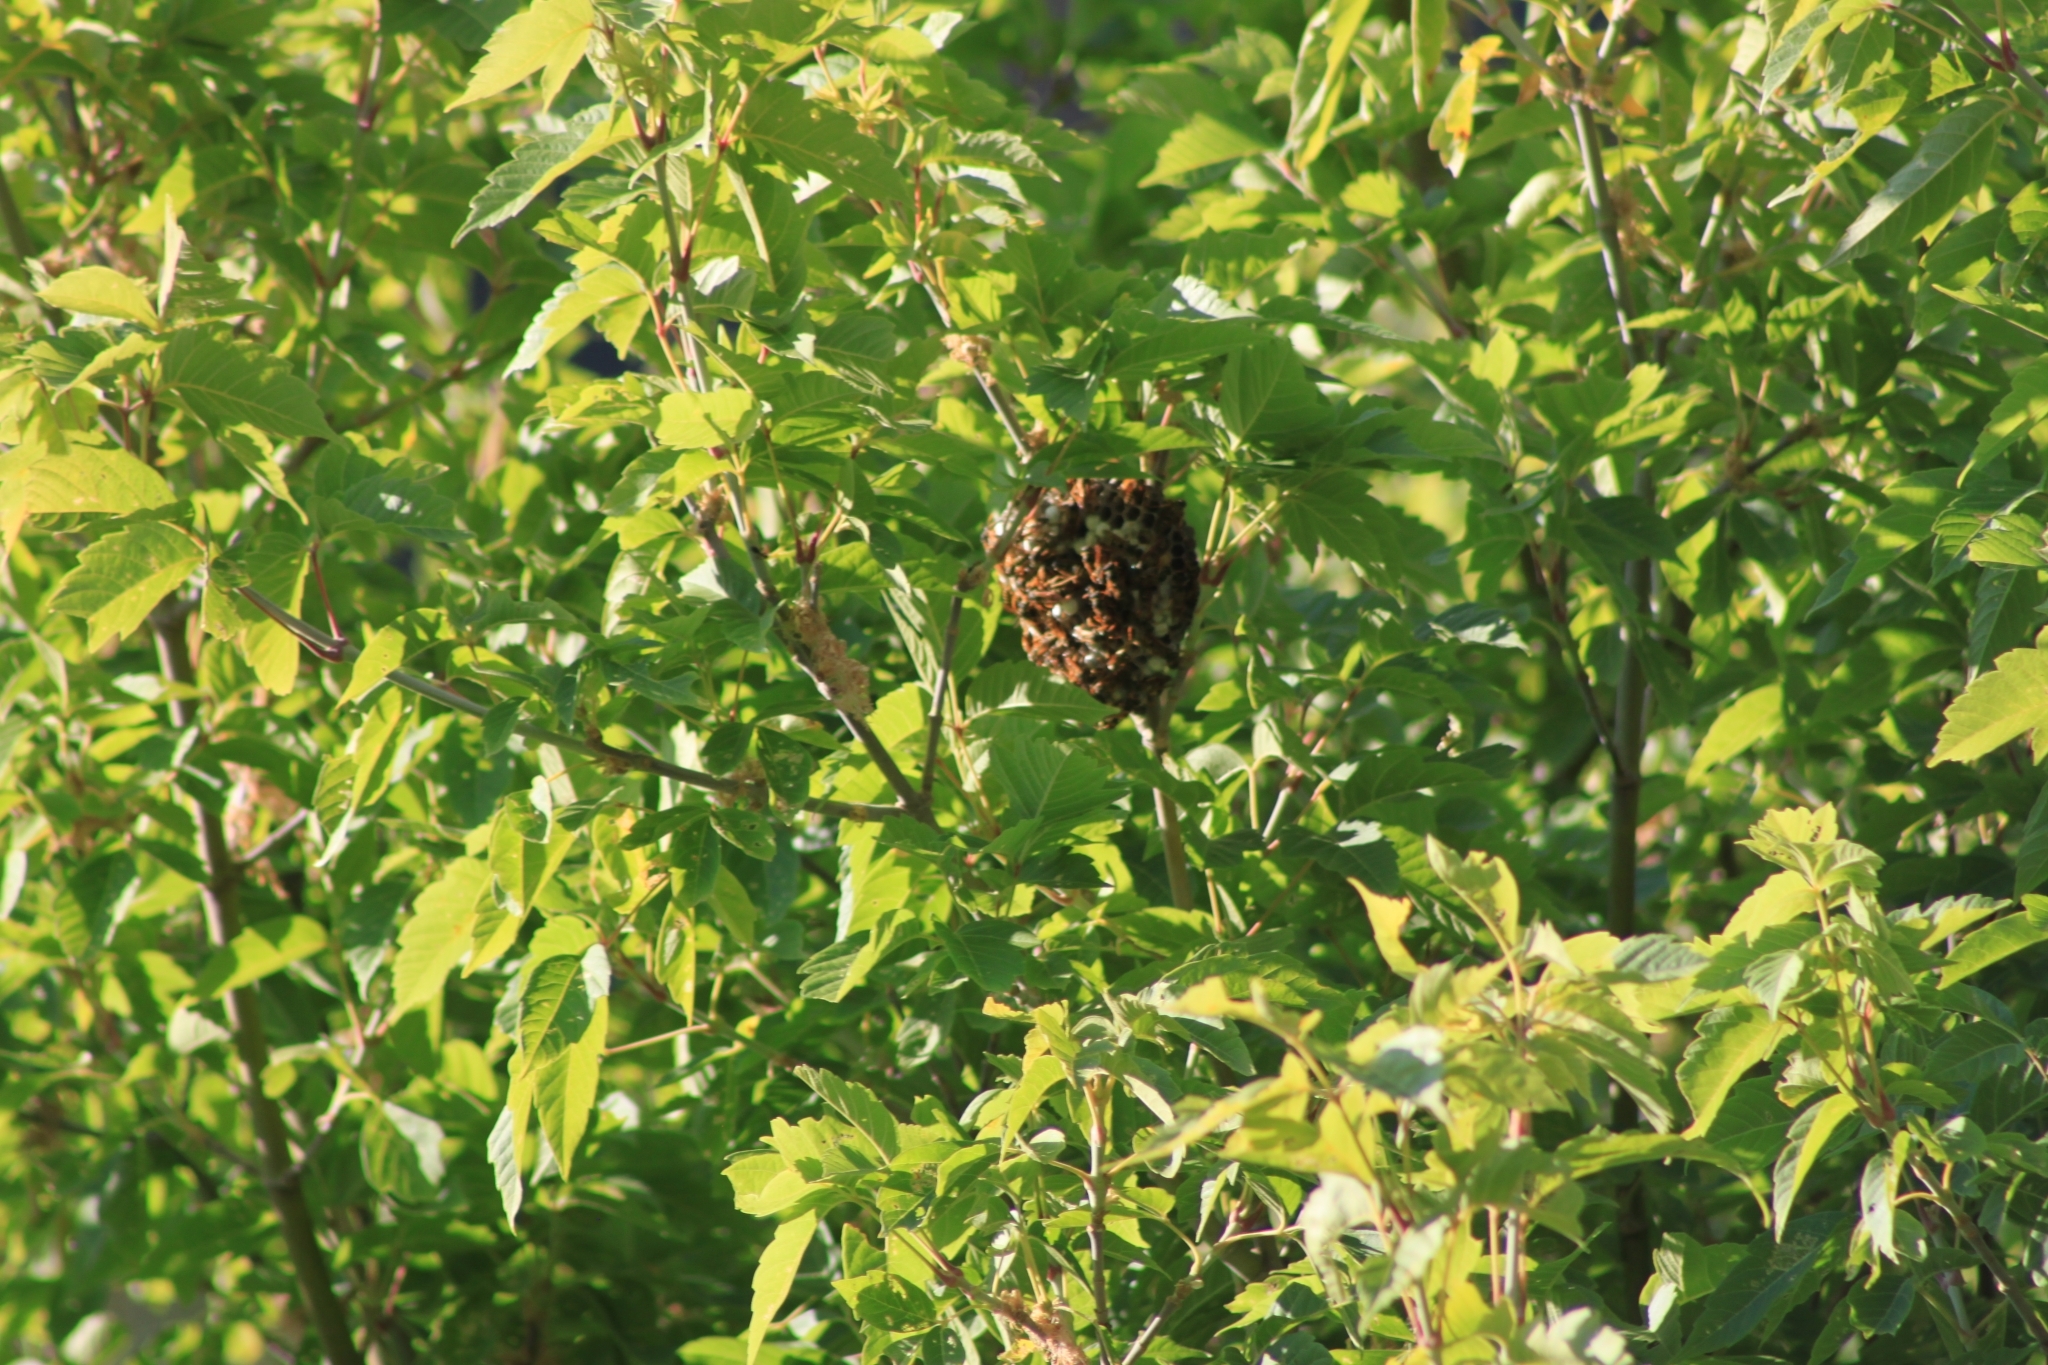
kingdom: Animalia
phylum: Arthropoda
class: Insecta
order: Hymenoptera
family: Vespidae
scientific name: Vespidae
